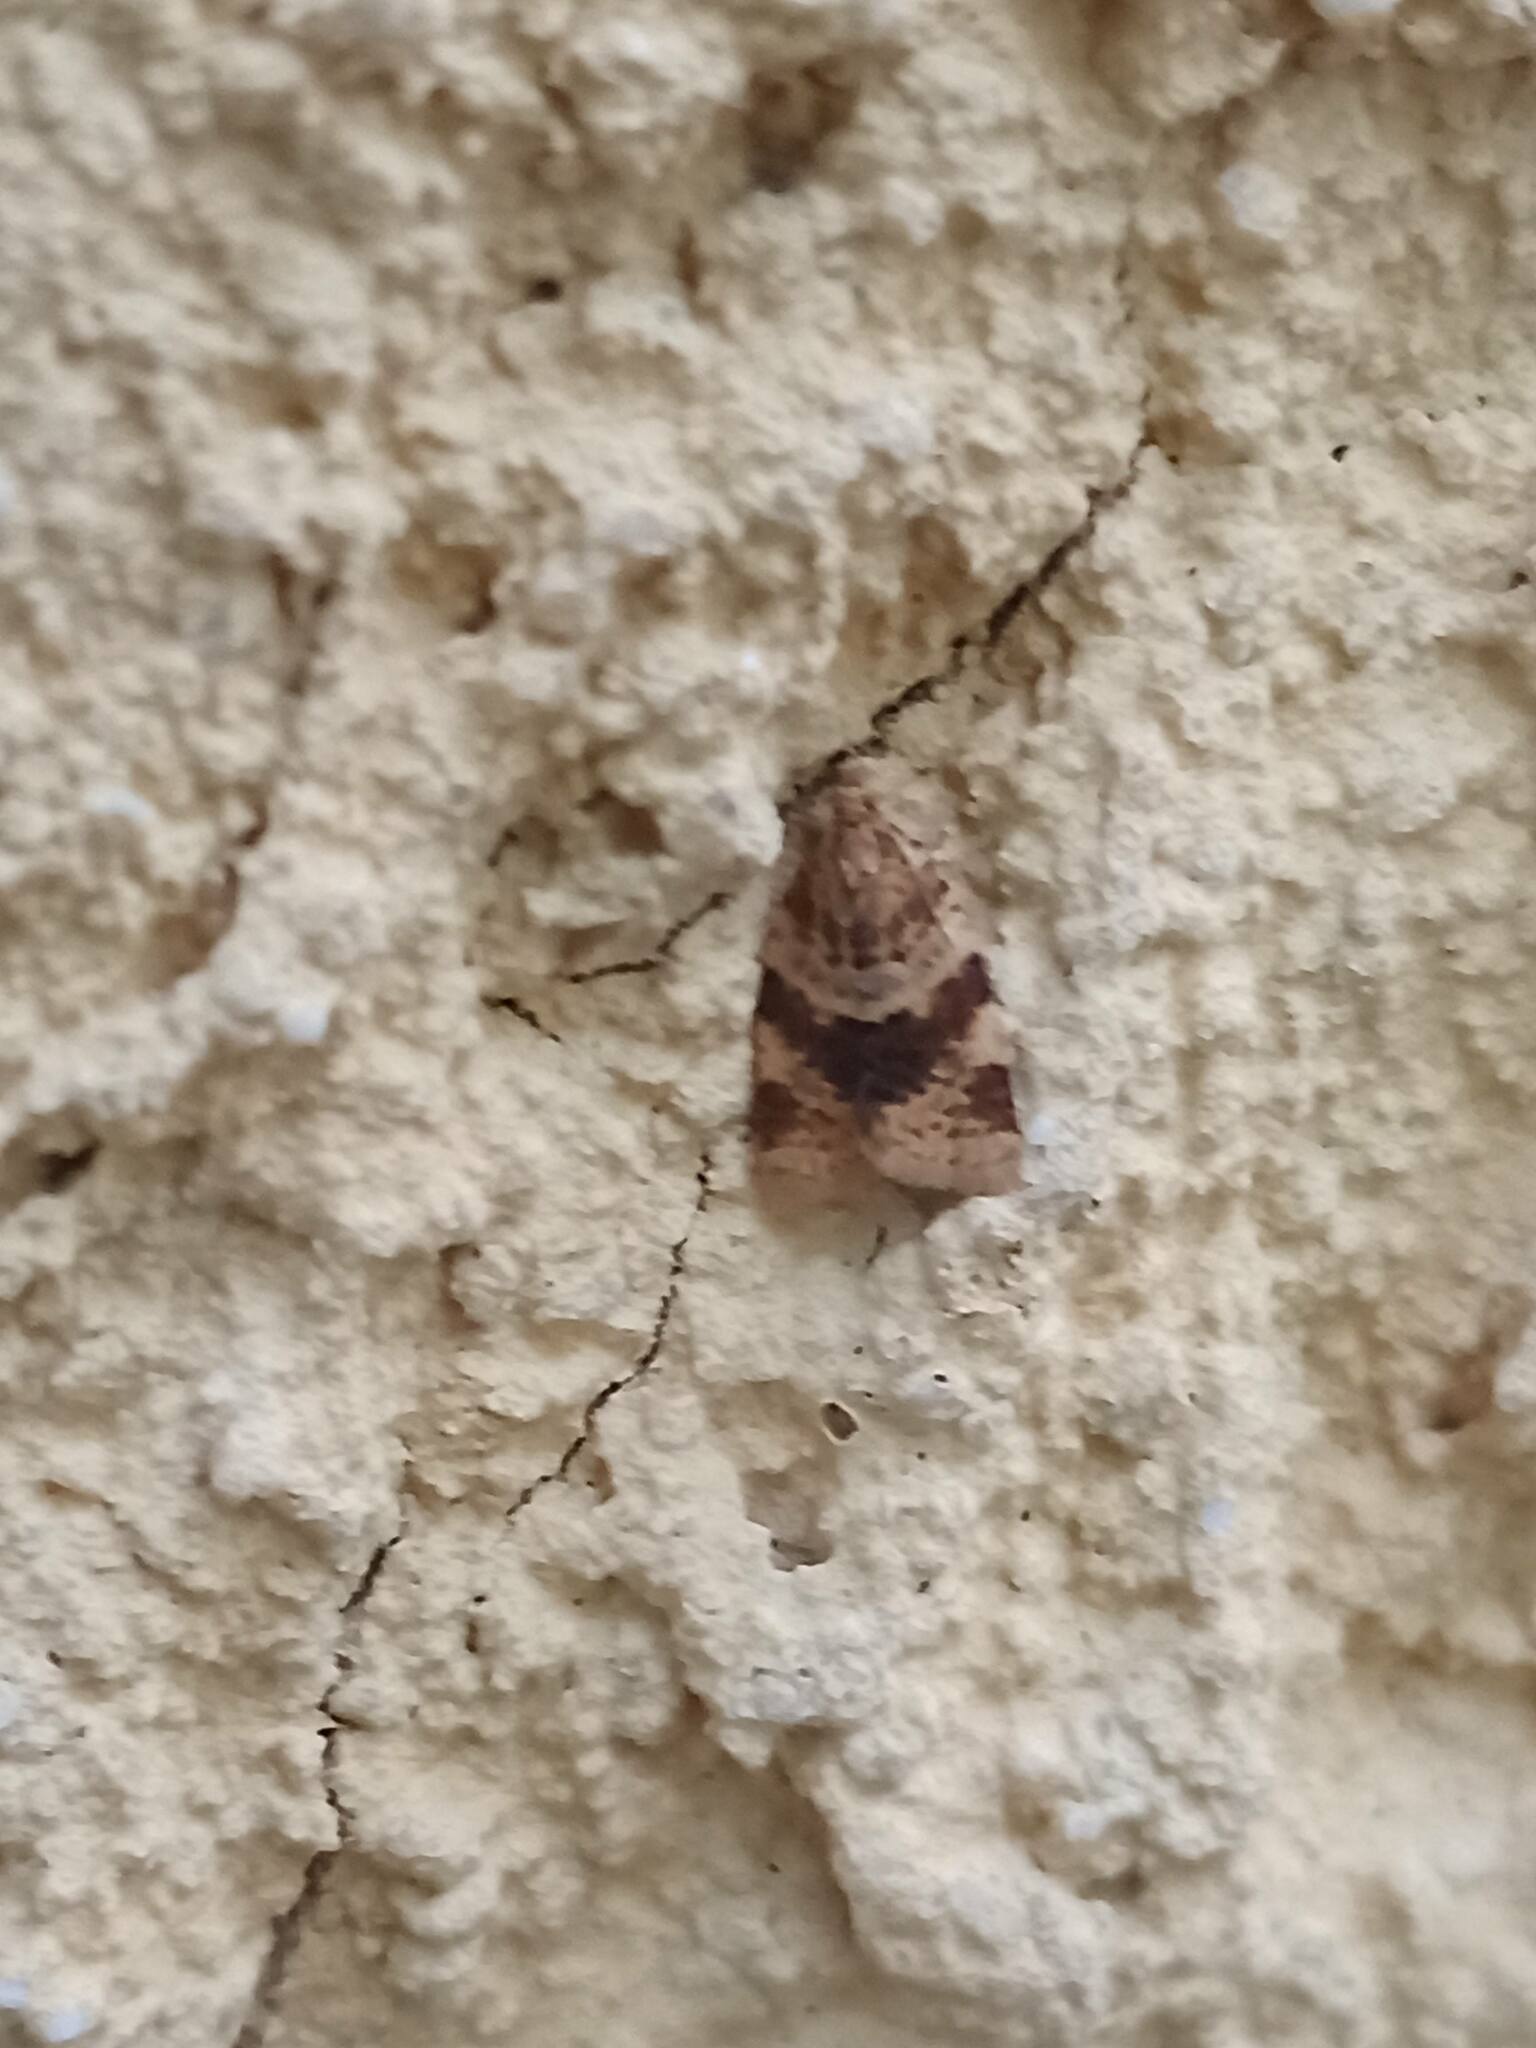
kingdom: Animalia
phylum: Arthropoda
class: Insecta
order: Lepidoptera
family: Tortricidae
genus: Epagoge
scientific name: Epagoge grotiana
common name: Brown-barred twist
